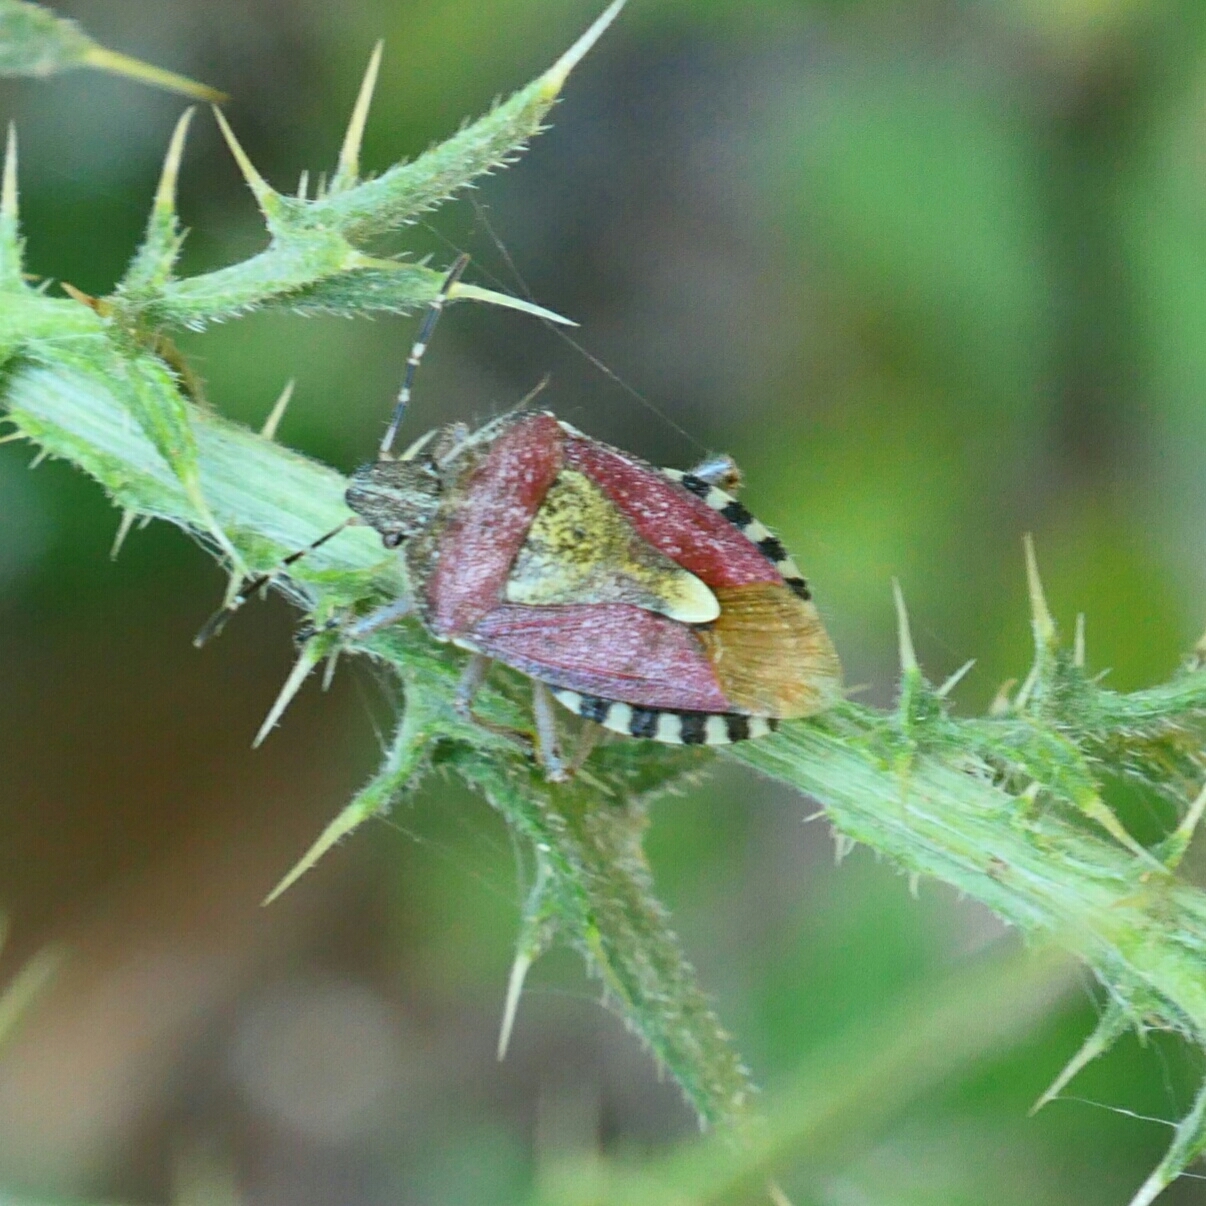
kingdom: Animalia
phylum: Arthropoda
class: Insecta
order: Hemiptera
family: Pentatomidae
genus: Dolycoris
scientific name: Dolycoris baccarum
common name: Sloe bug
